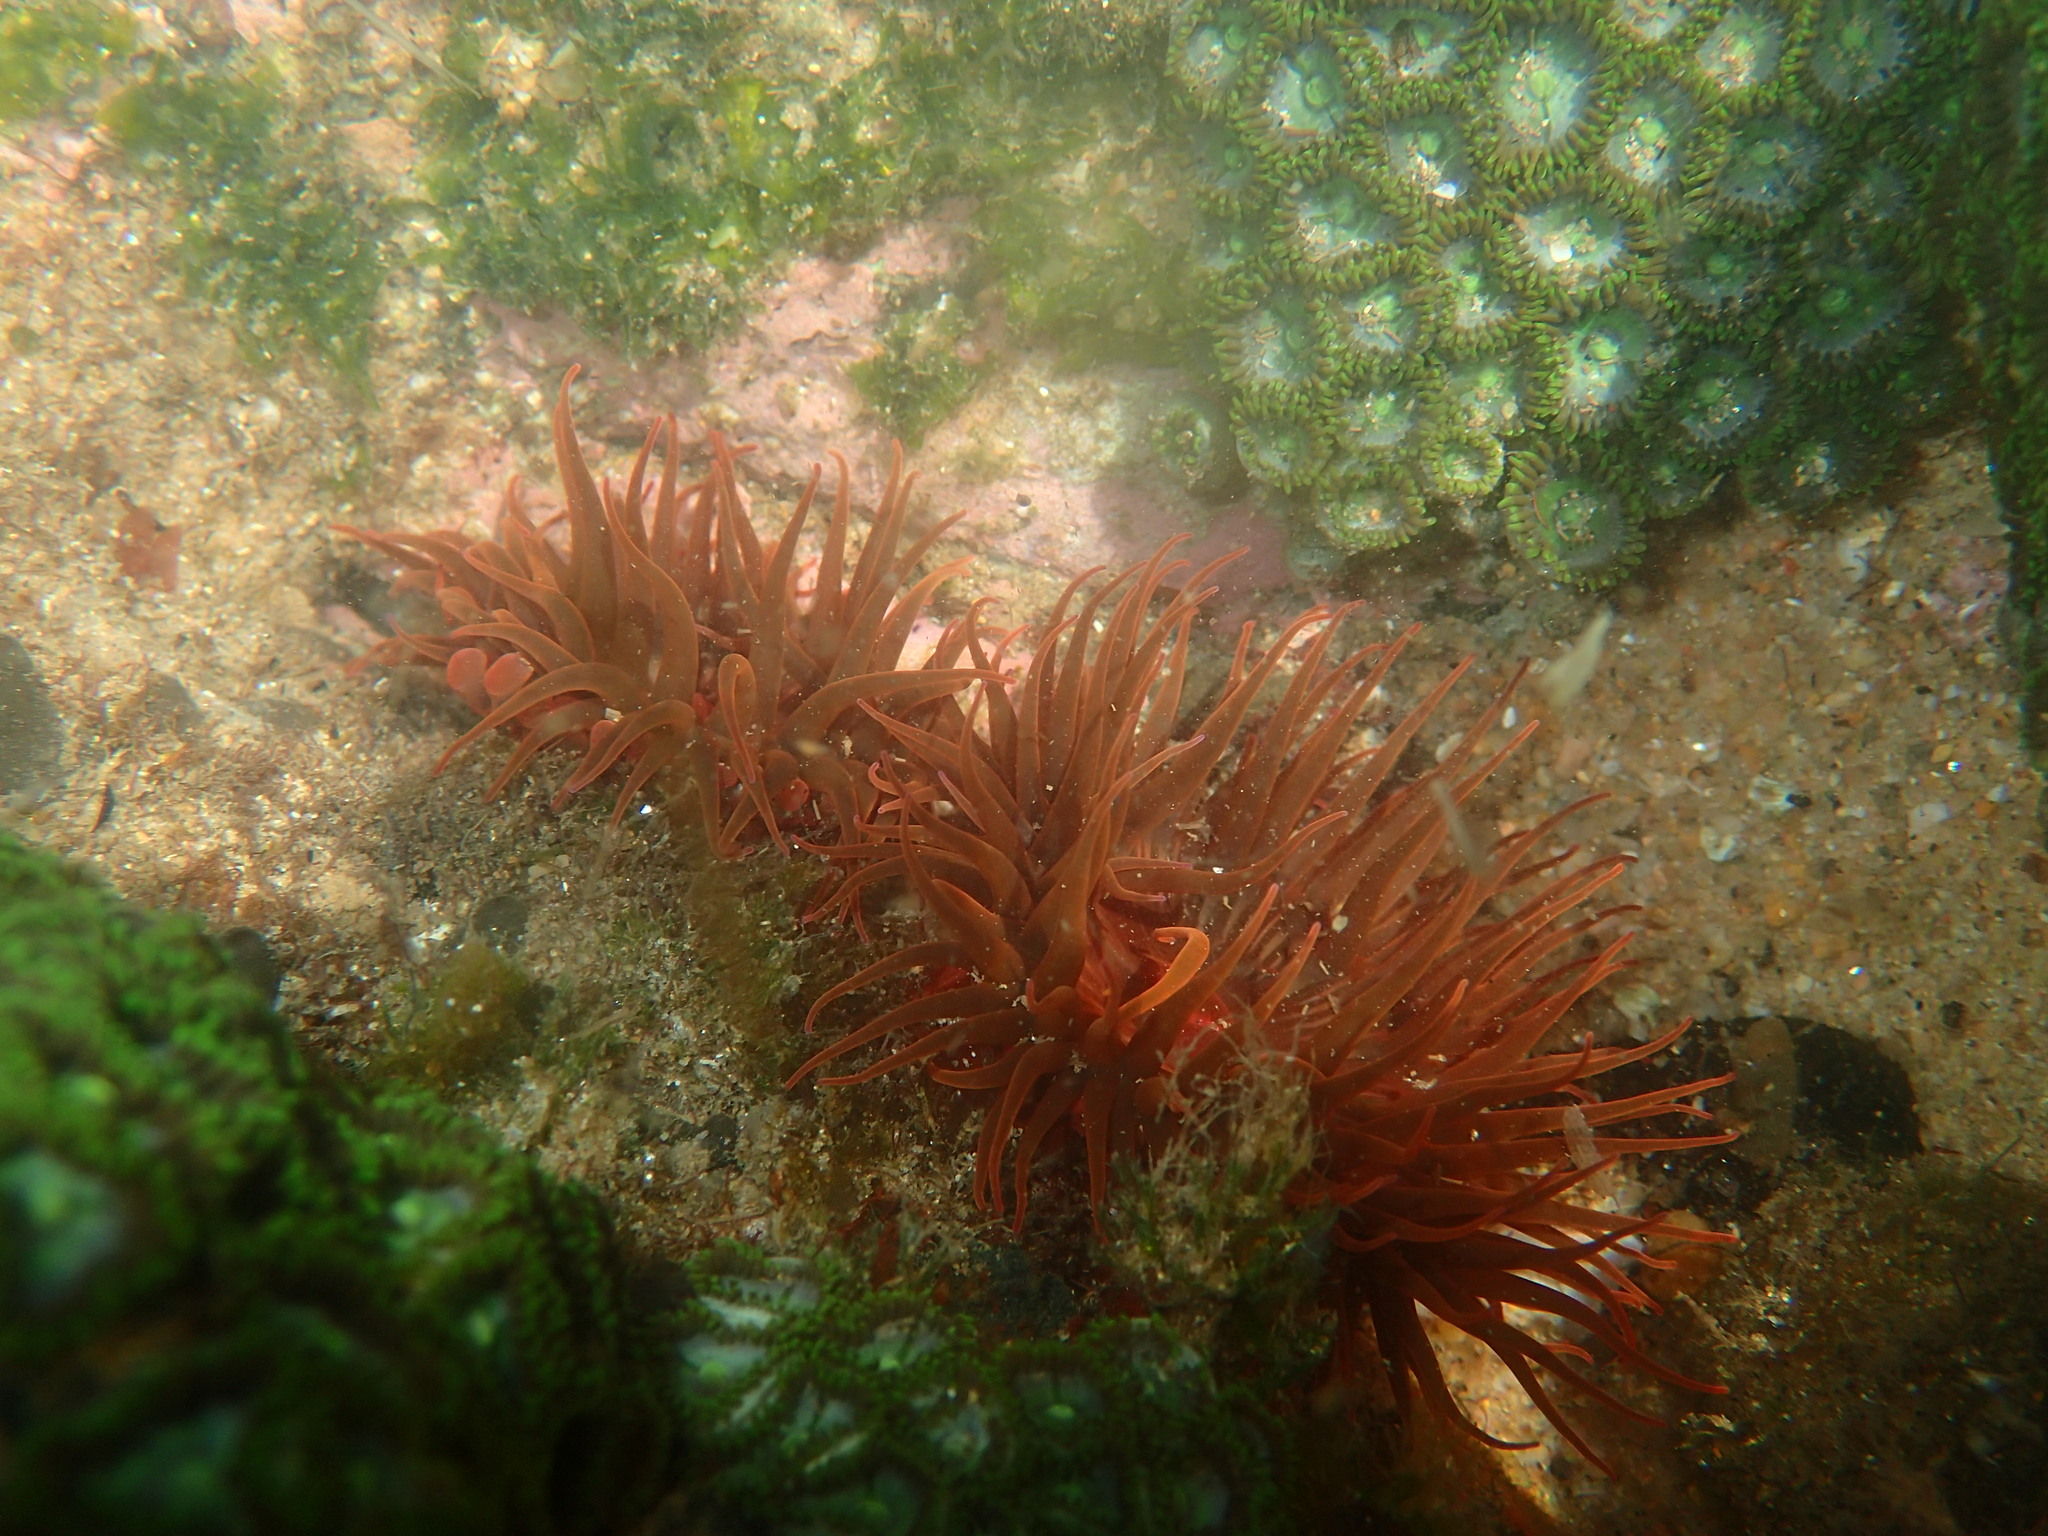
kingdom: Animalia
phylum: Cnidaria
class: Anthozoa
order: Actiniaria
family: Actiniidae
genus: Anemonia
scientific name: Anemonia natalensis
